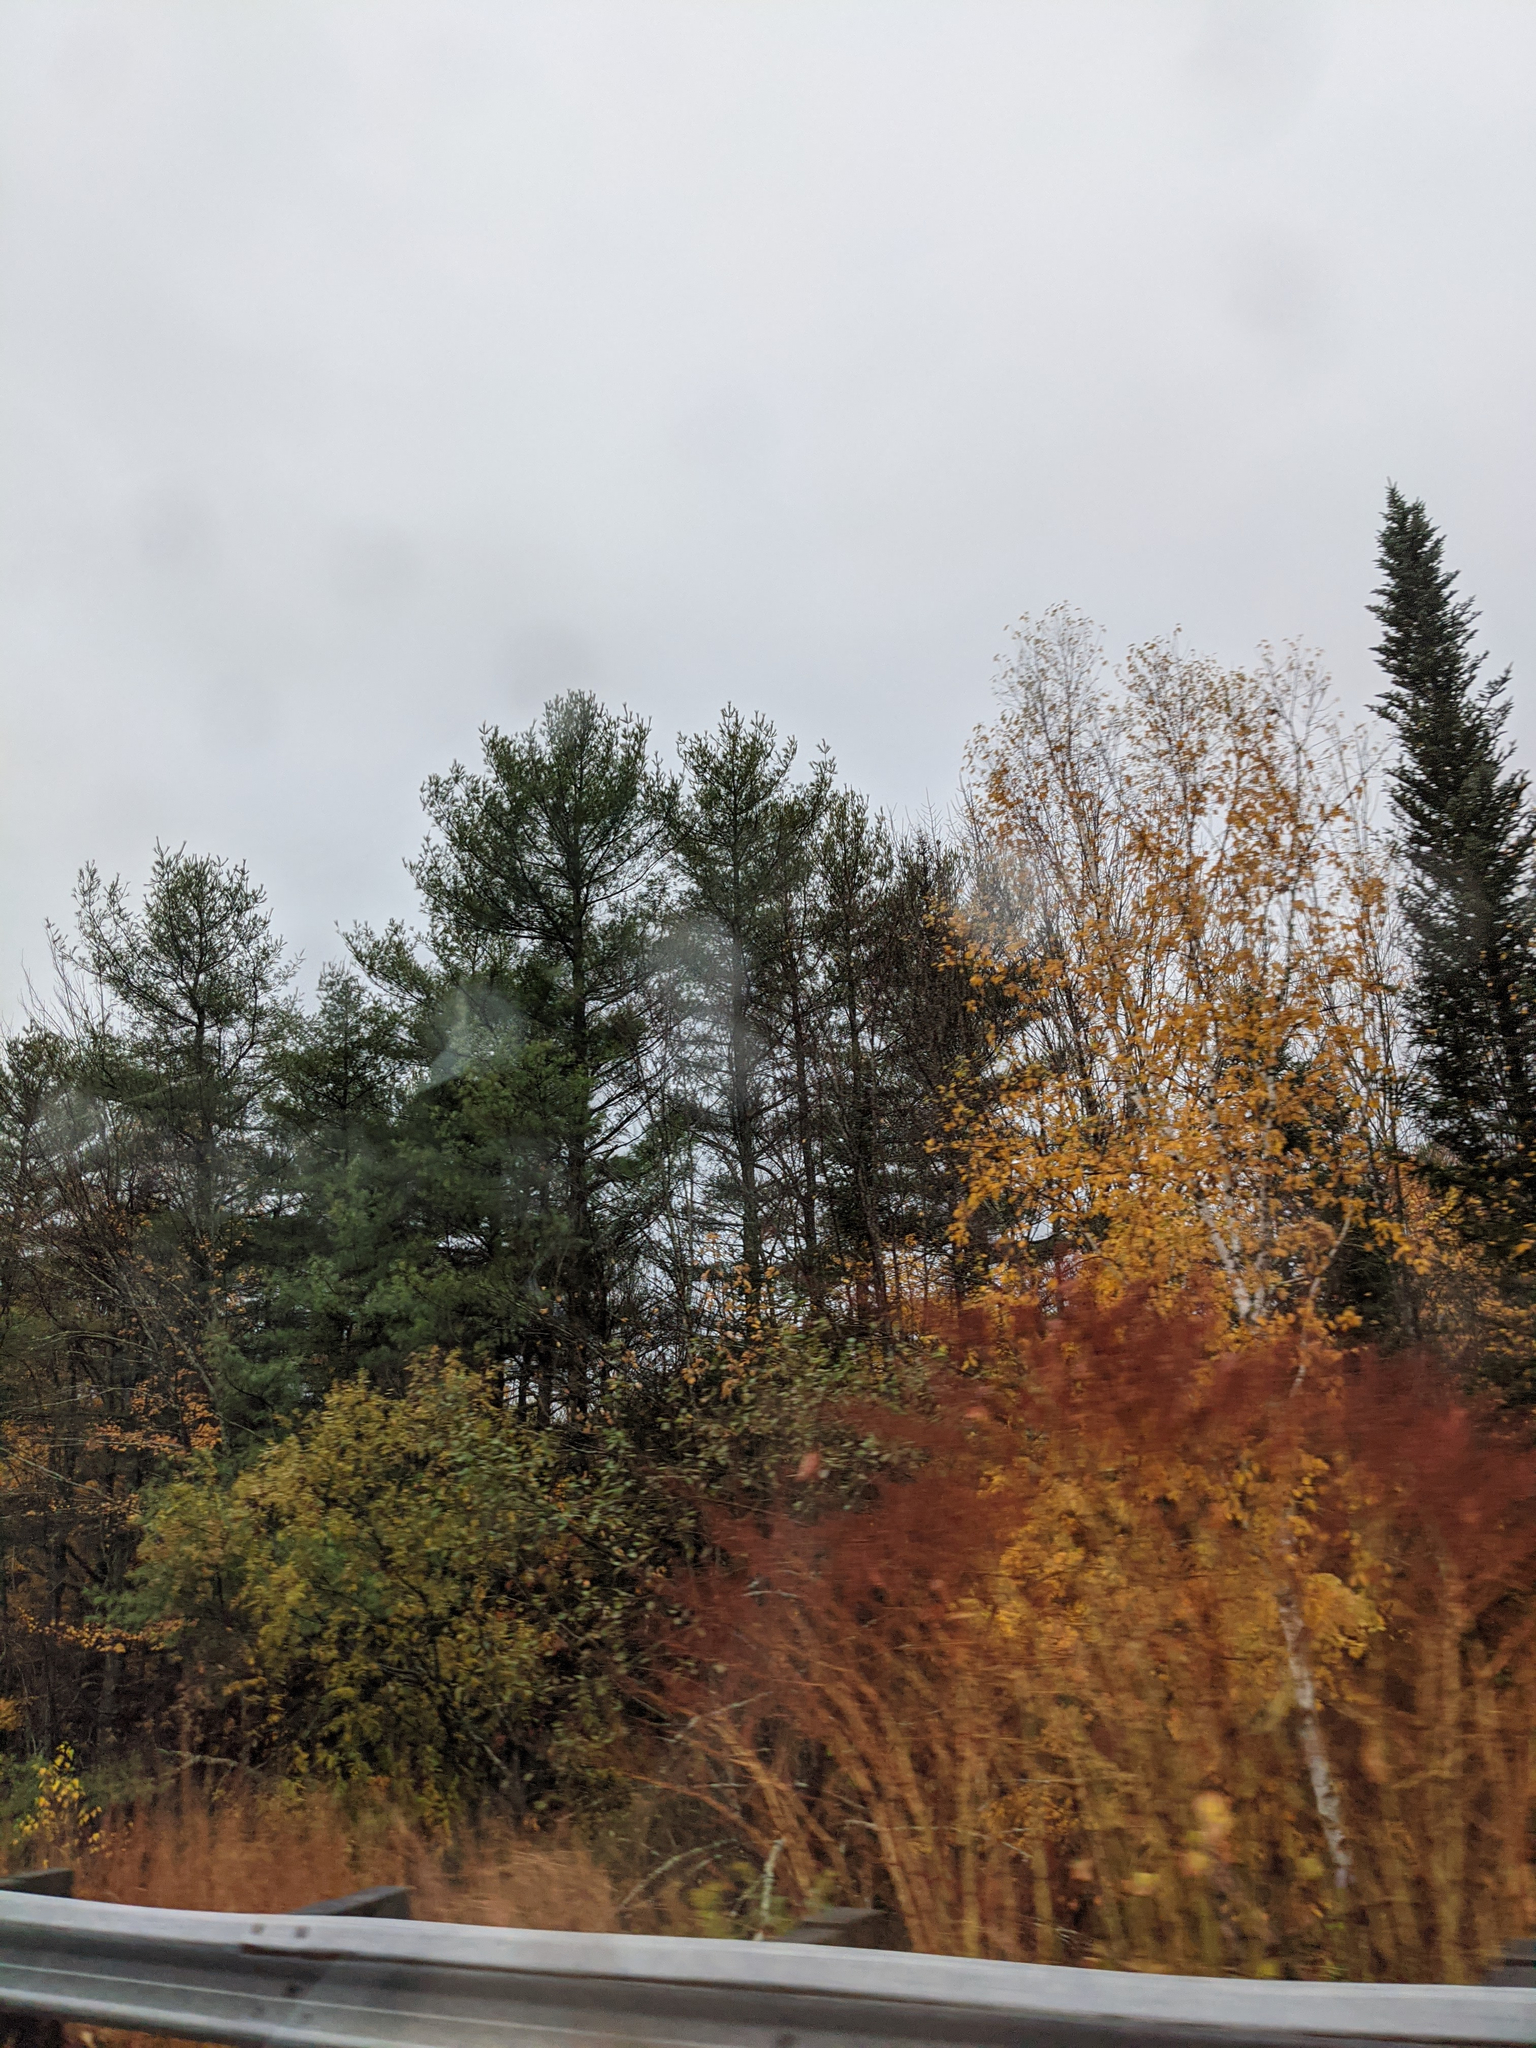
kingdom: Plantae
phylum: Tracheophyta
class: Pinopsida
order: Pinales
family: Pinaceae
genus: Pinus
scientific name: Pinus strobus
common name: Weymouth pine
